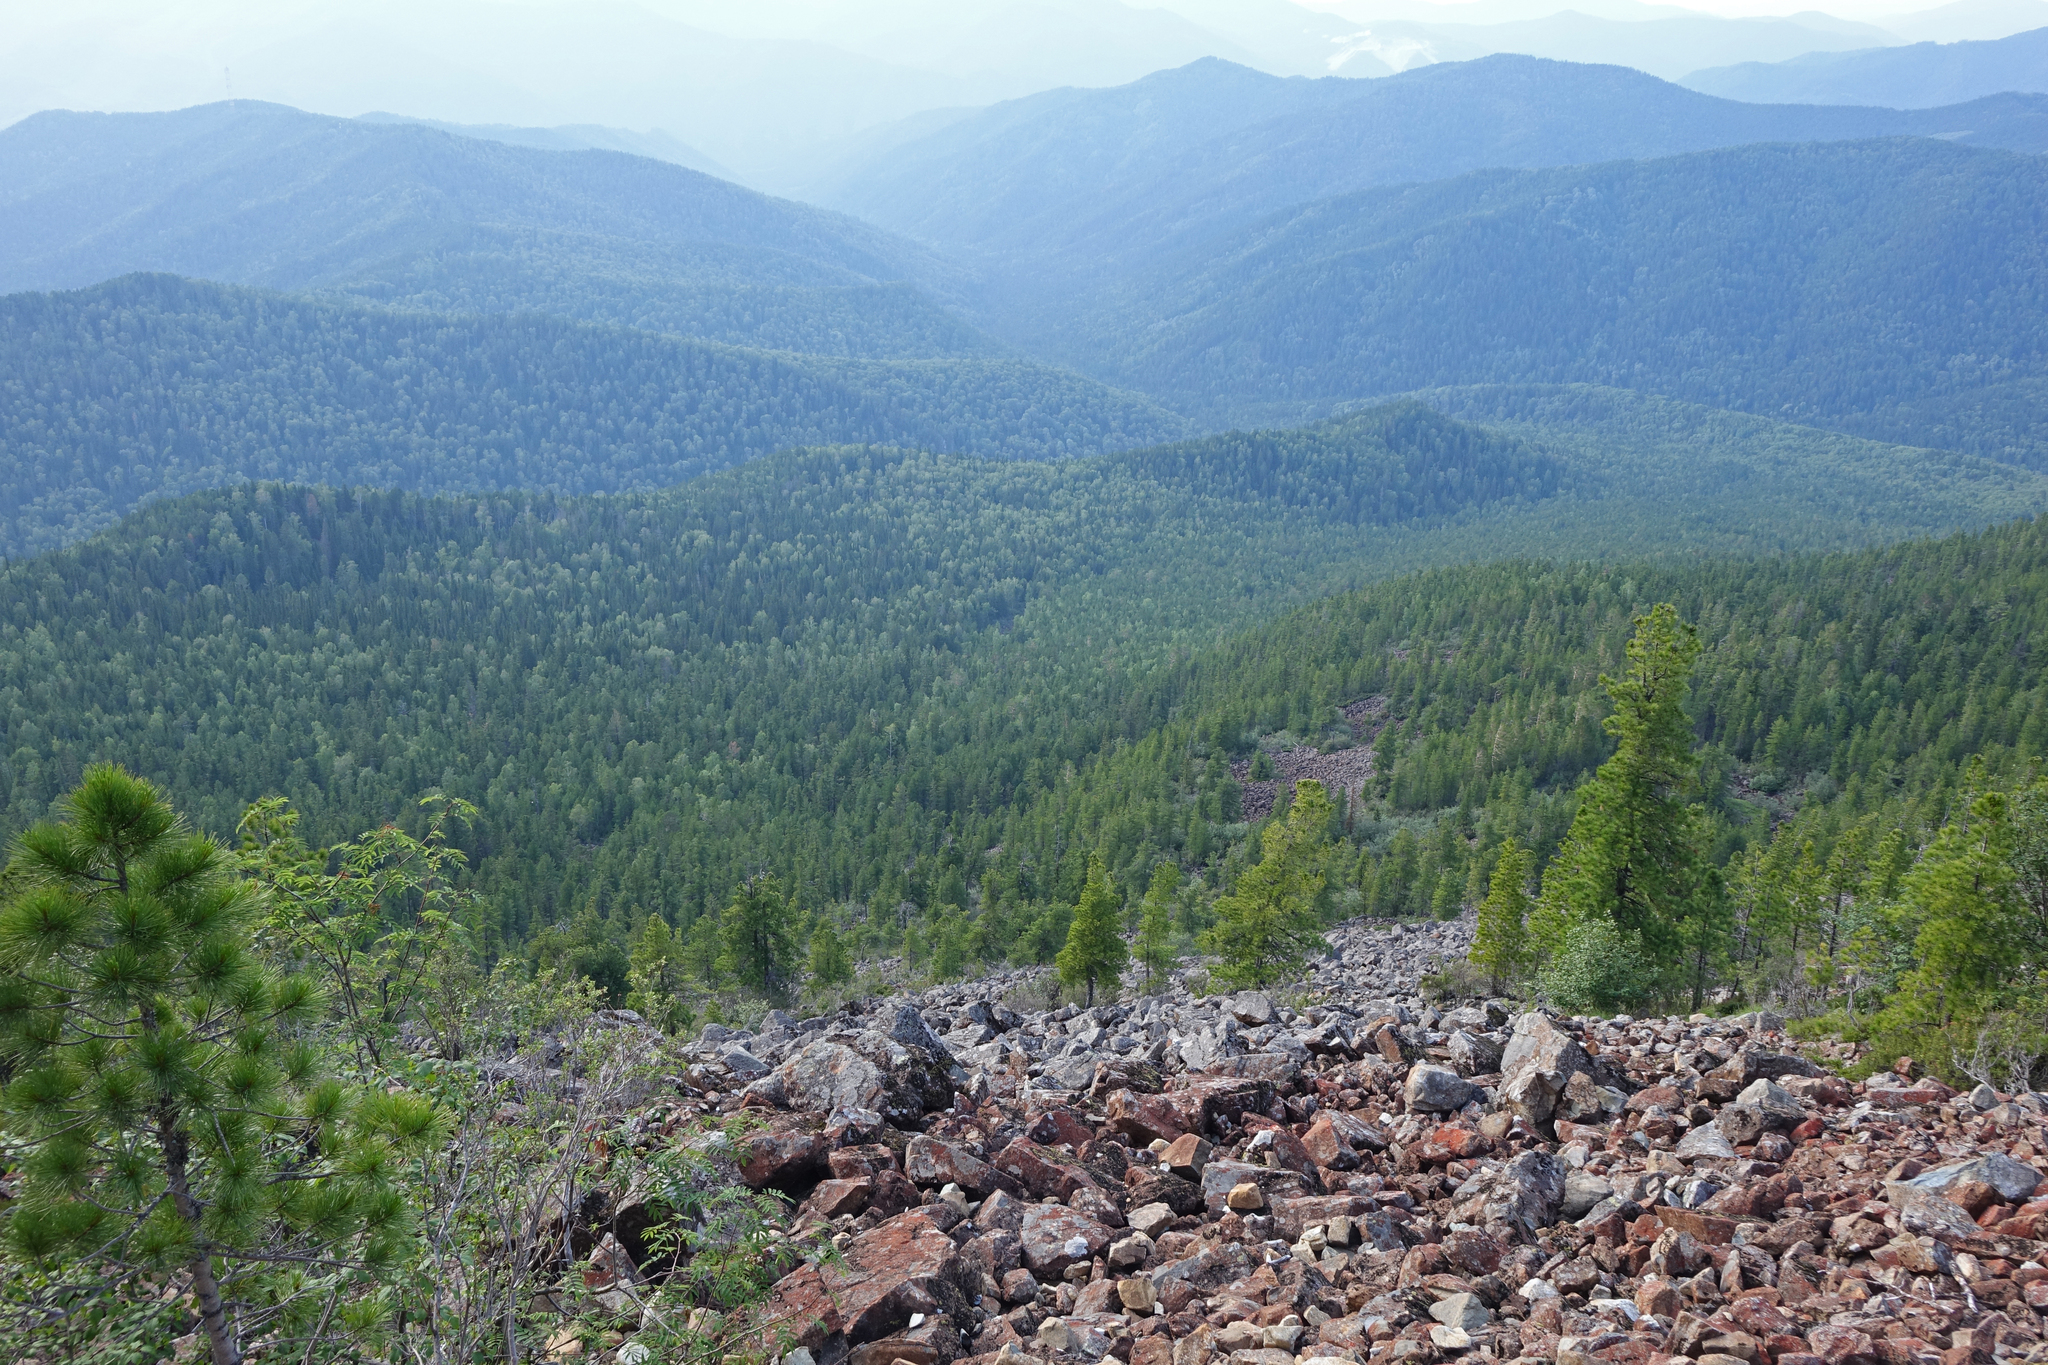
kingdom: Plantae
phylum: Tracheophyta
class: Pinopsida
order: Pinales
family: Pinaceae
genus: Pinus
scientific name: Pinus sibirica
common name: Siberian pine
